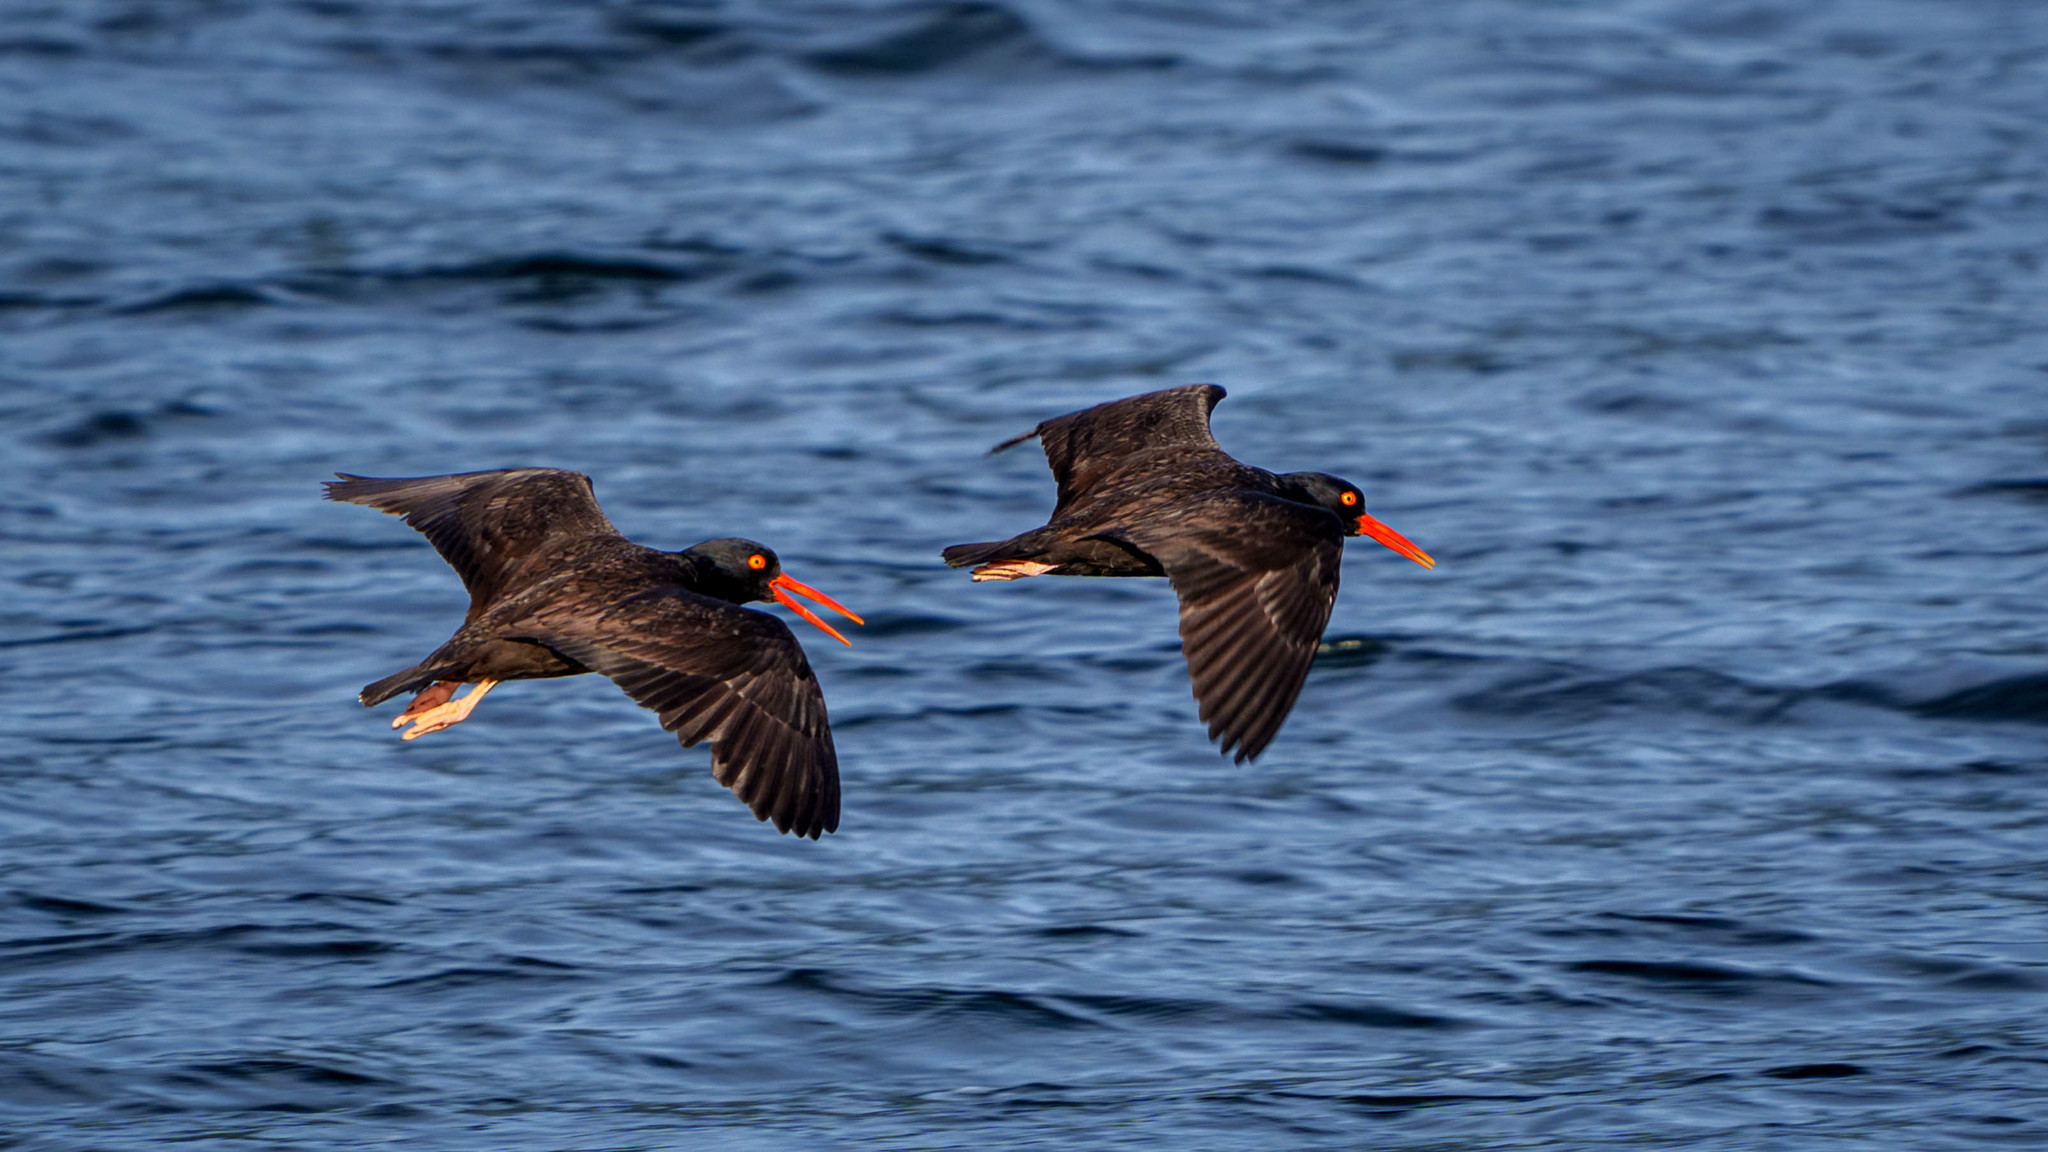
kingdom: Animalia
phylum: Chordata
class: Aves
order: Charadriiformes
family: Haematopodidae
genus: Haematopus
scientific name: Haematopus bachmani
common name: Black oystercatcher
